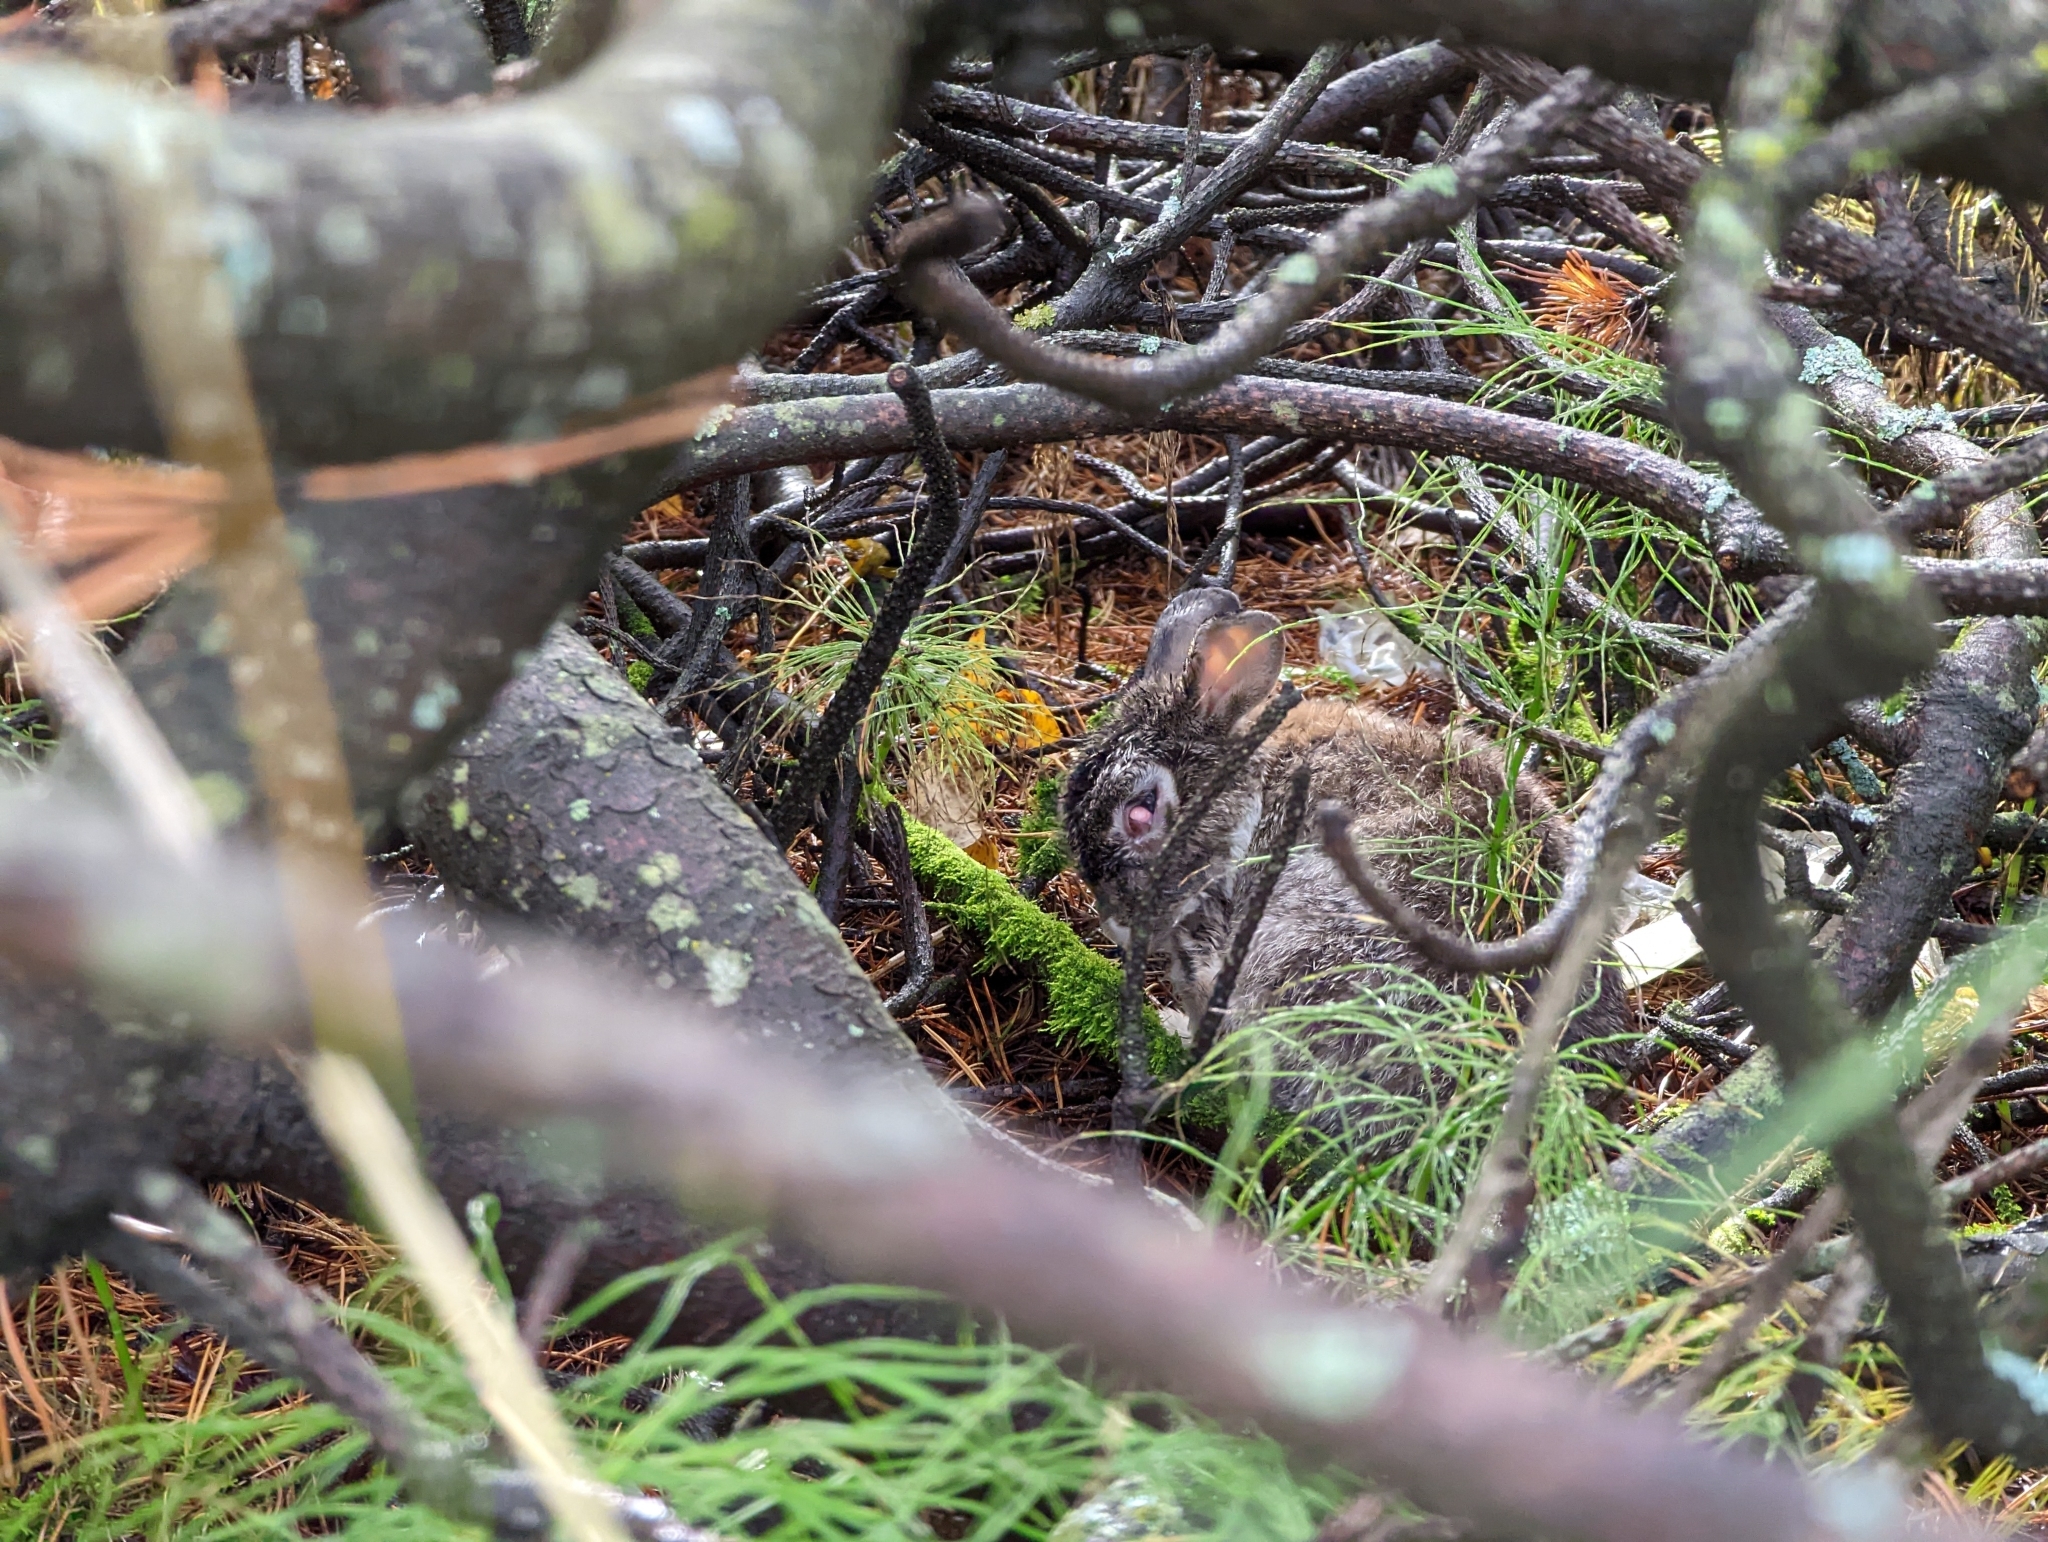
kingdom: Animalia
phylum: Chordata
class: Mammalia
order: Lagomorpha
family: Leporidae
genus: Lepus
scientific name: Lepus americanus
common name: Snowshoe hare
